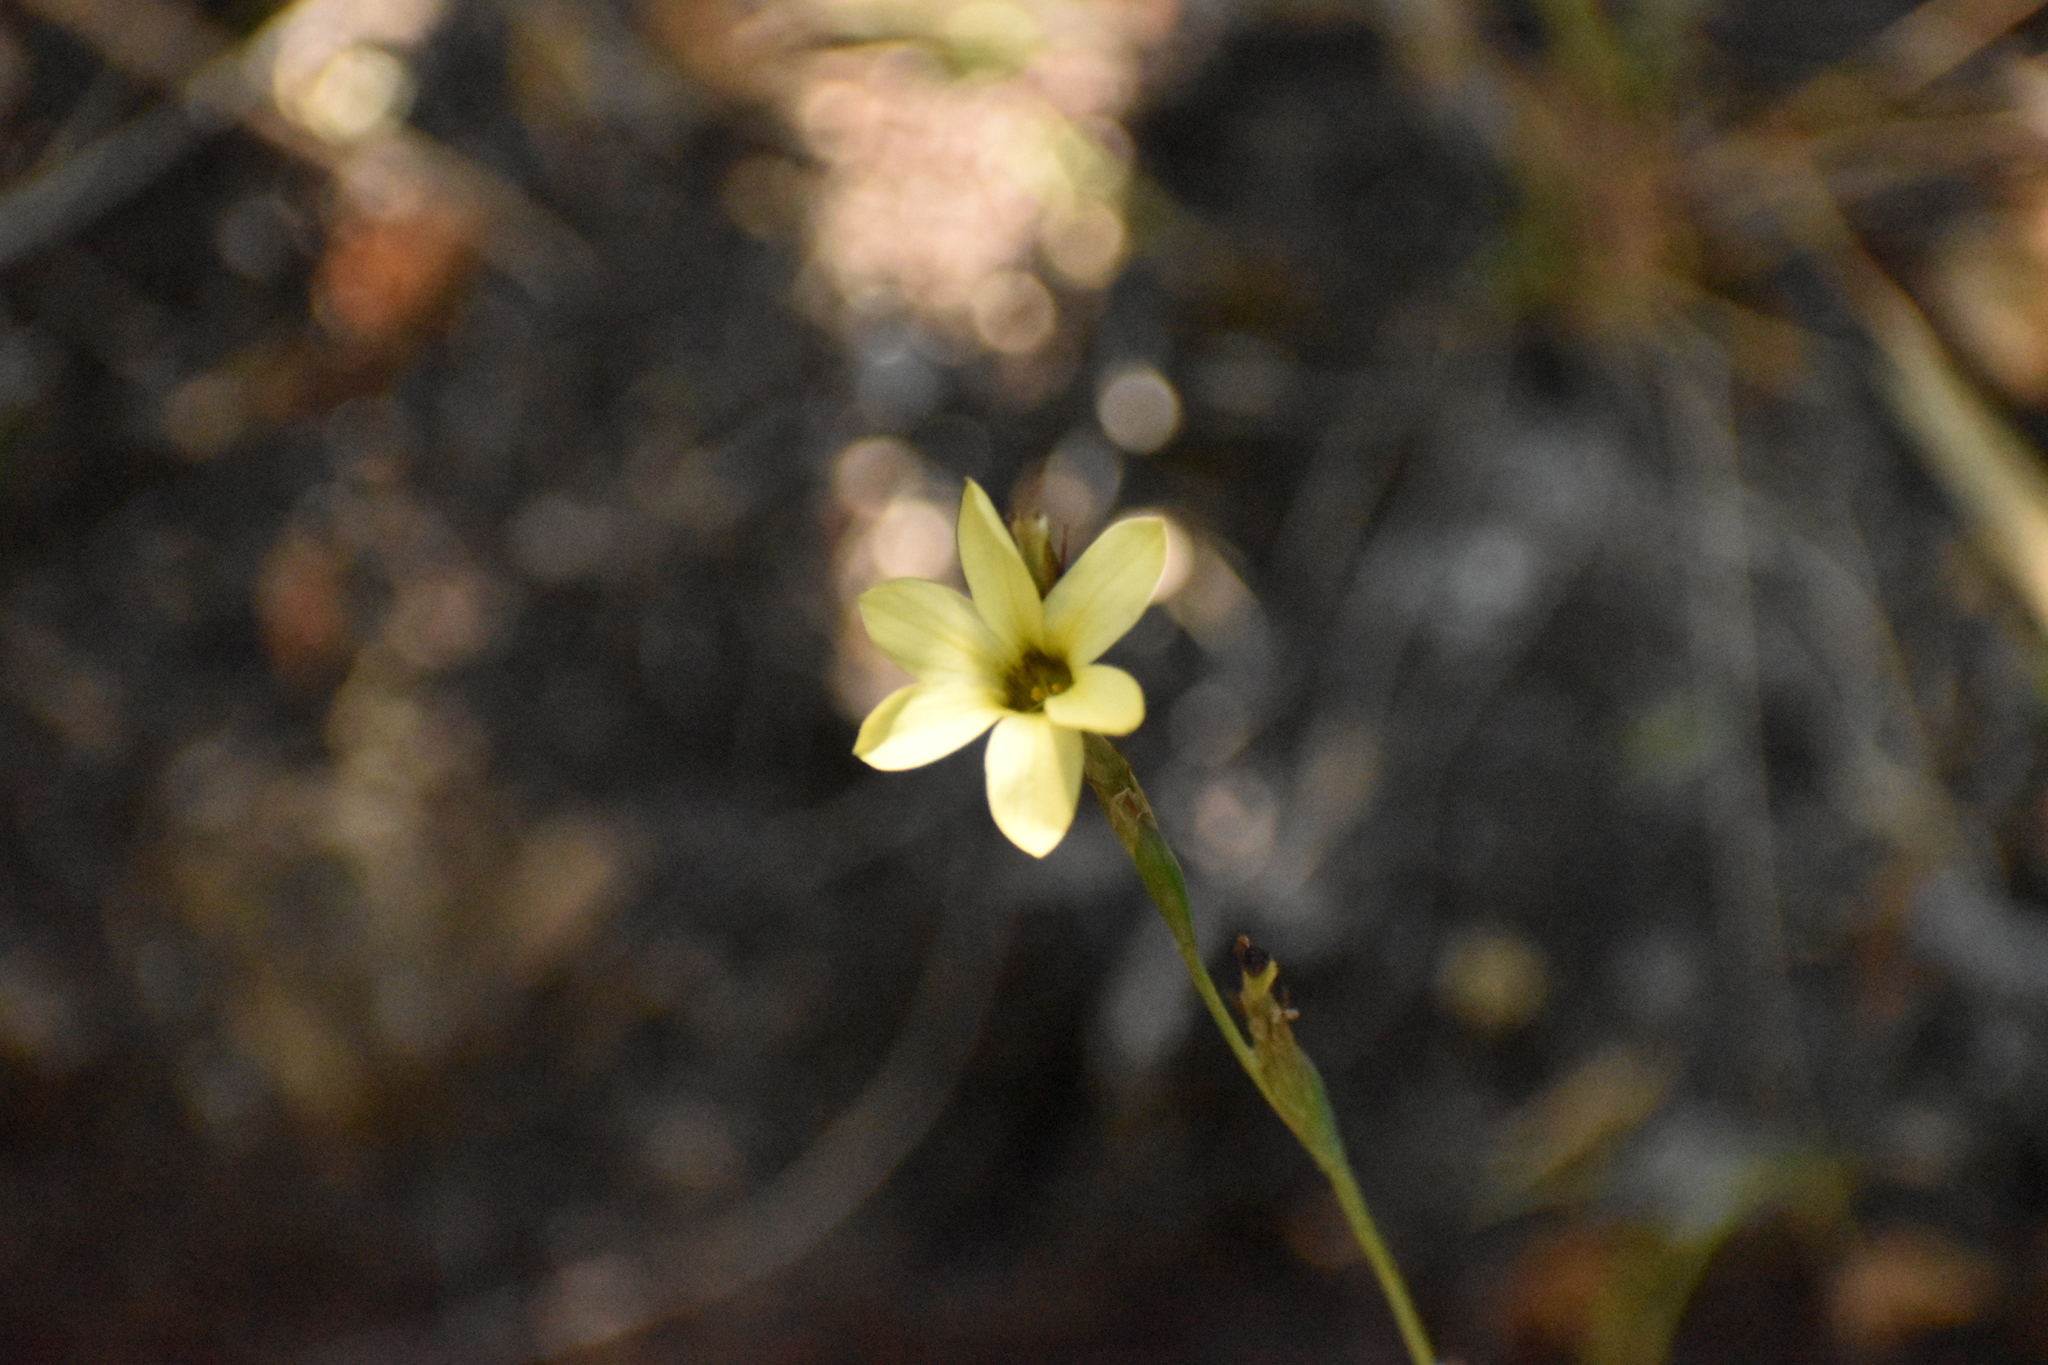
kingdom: Plantae
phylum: Tracheophyta
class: Liliopsida
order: Asparagales
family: Iridaceae
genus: Sisyrinchium
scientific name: Sisyrinchium arenarium
